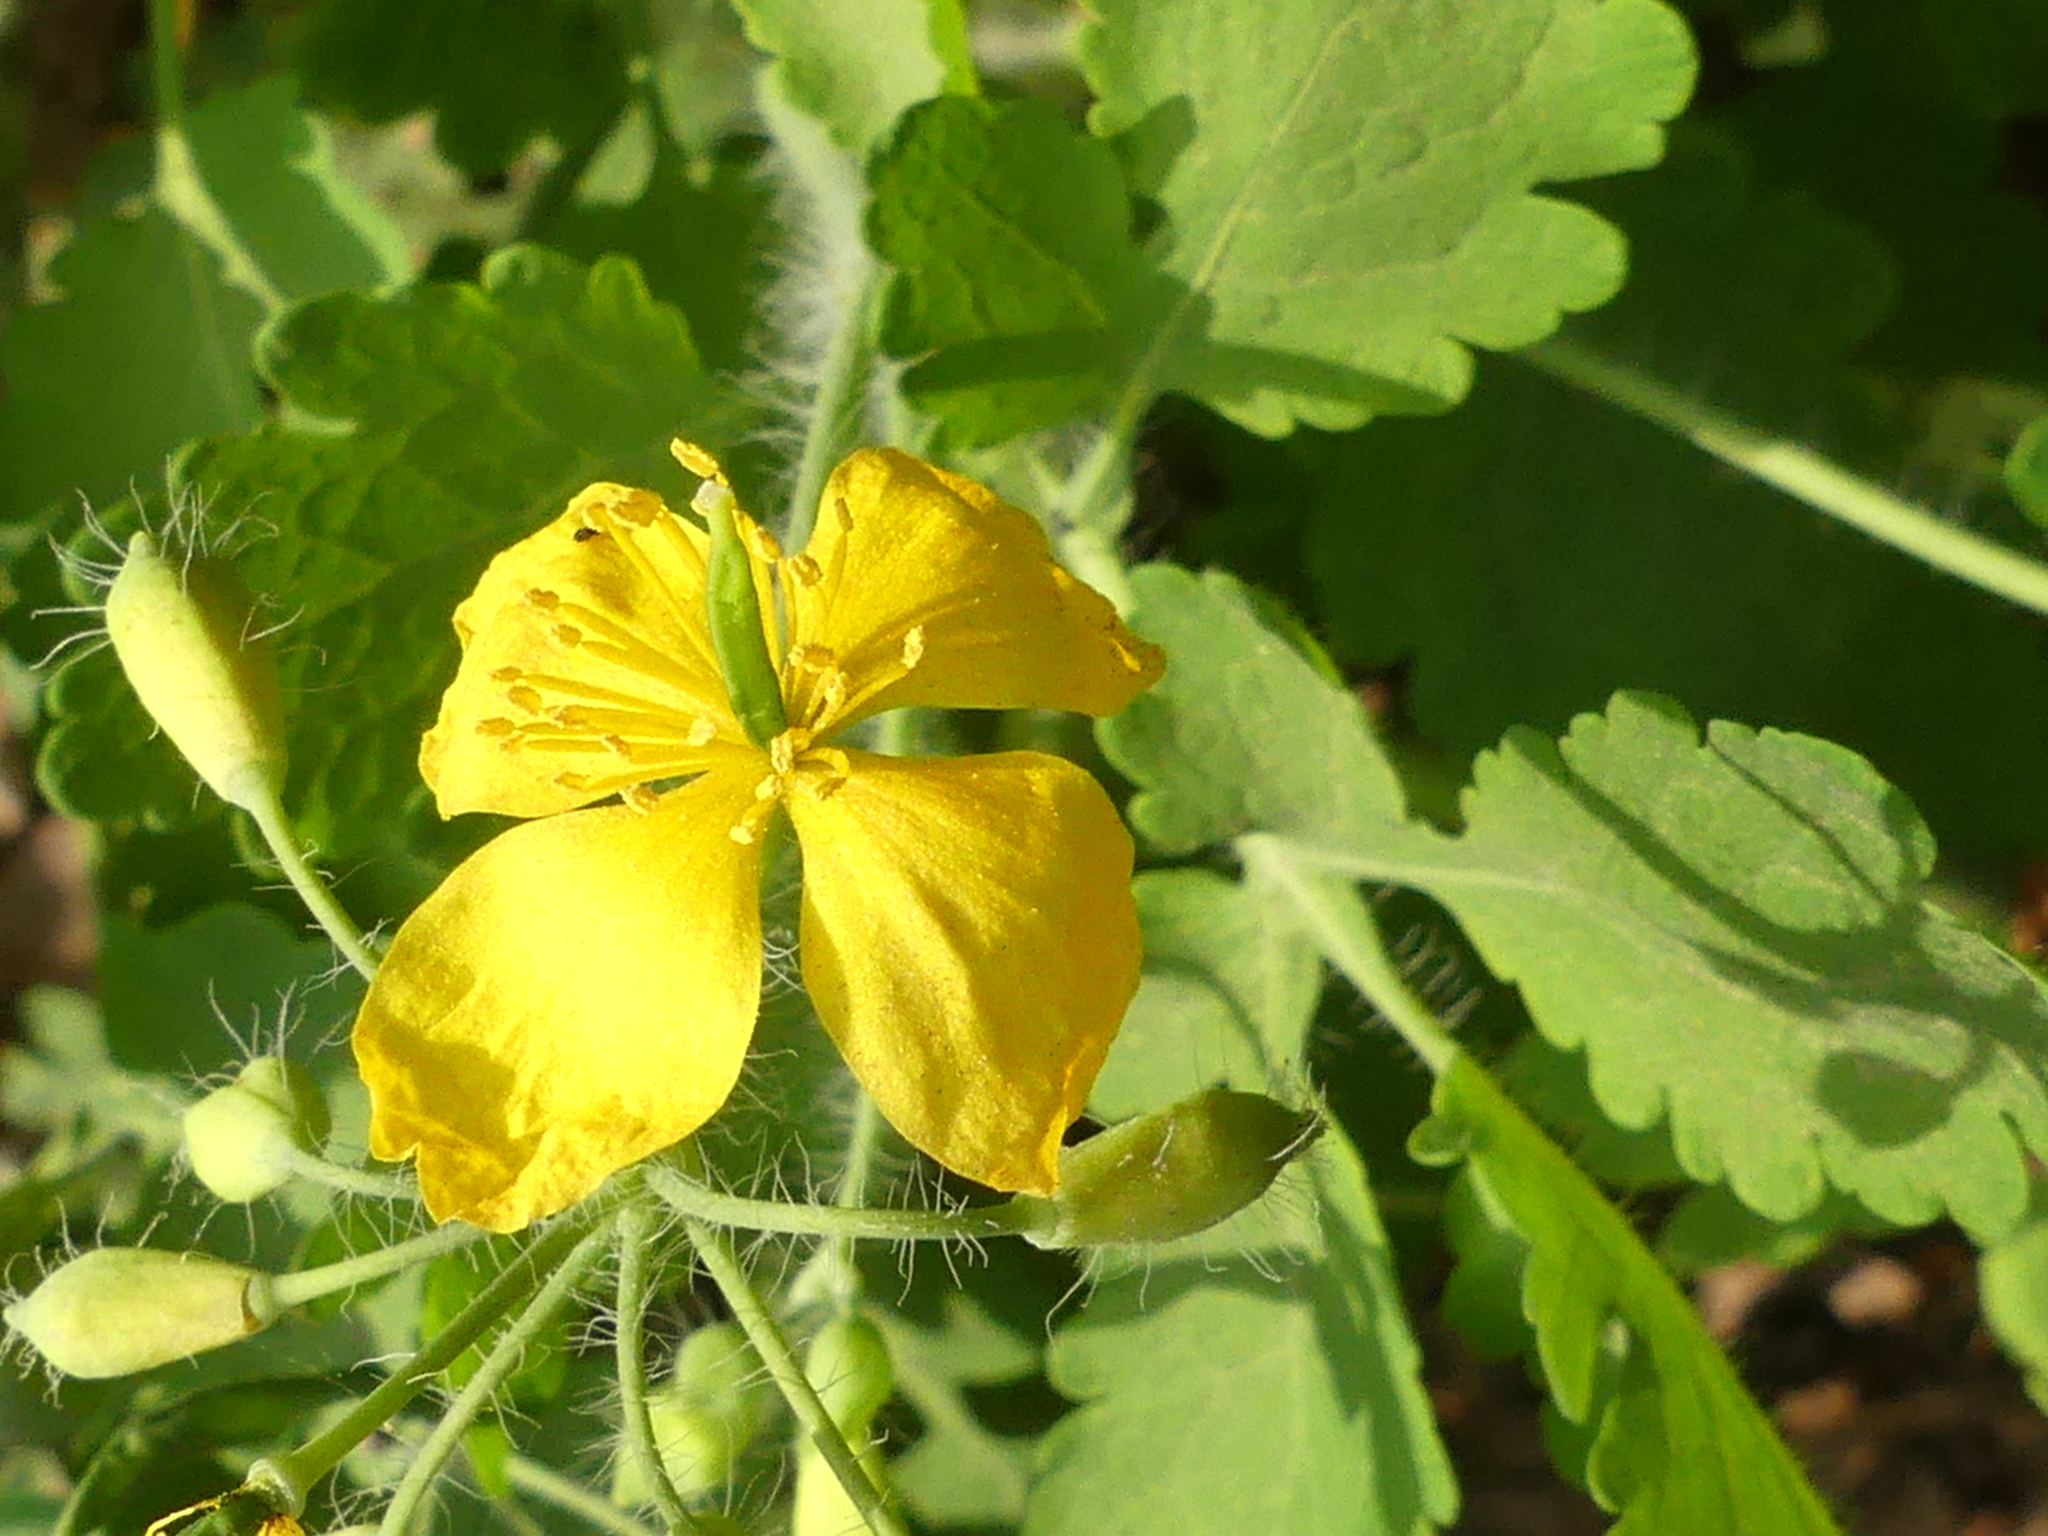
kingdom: Plantae
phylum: Tracheophyta
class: Magnoliopsida
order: Ranunculales
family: Papaveraceae
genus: Chelidonium
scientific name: Chelidonium majus
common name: Greater celandine
